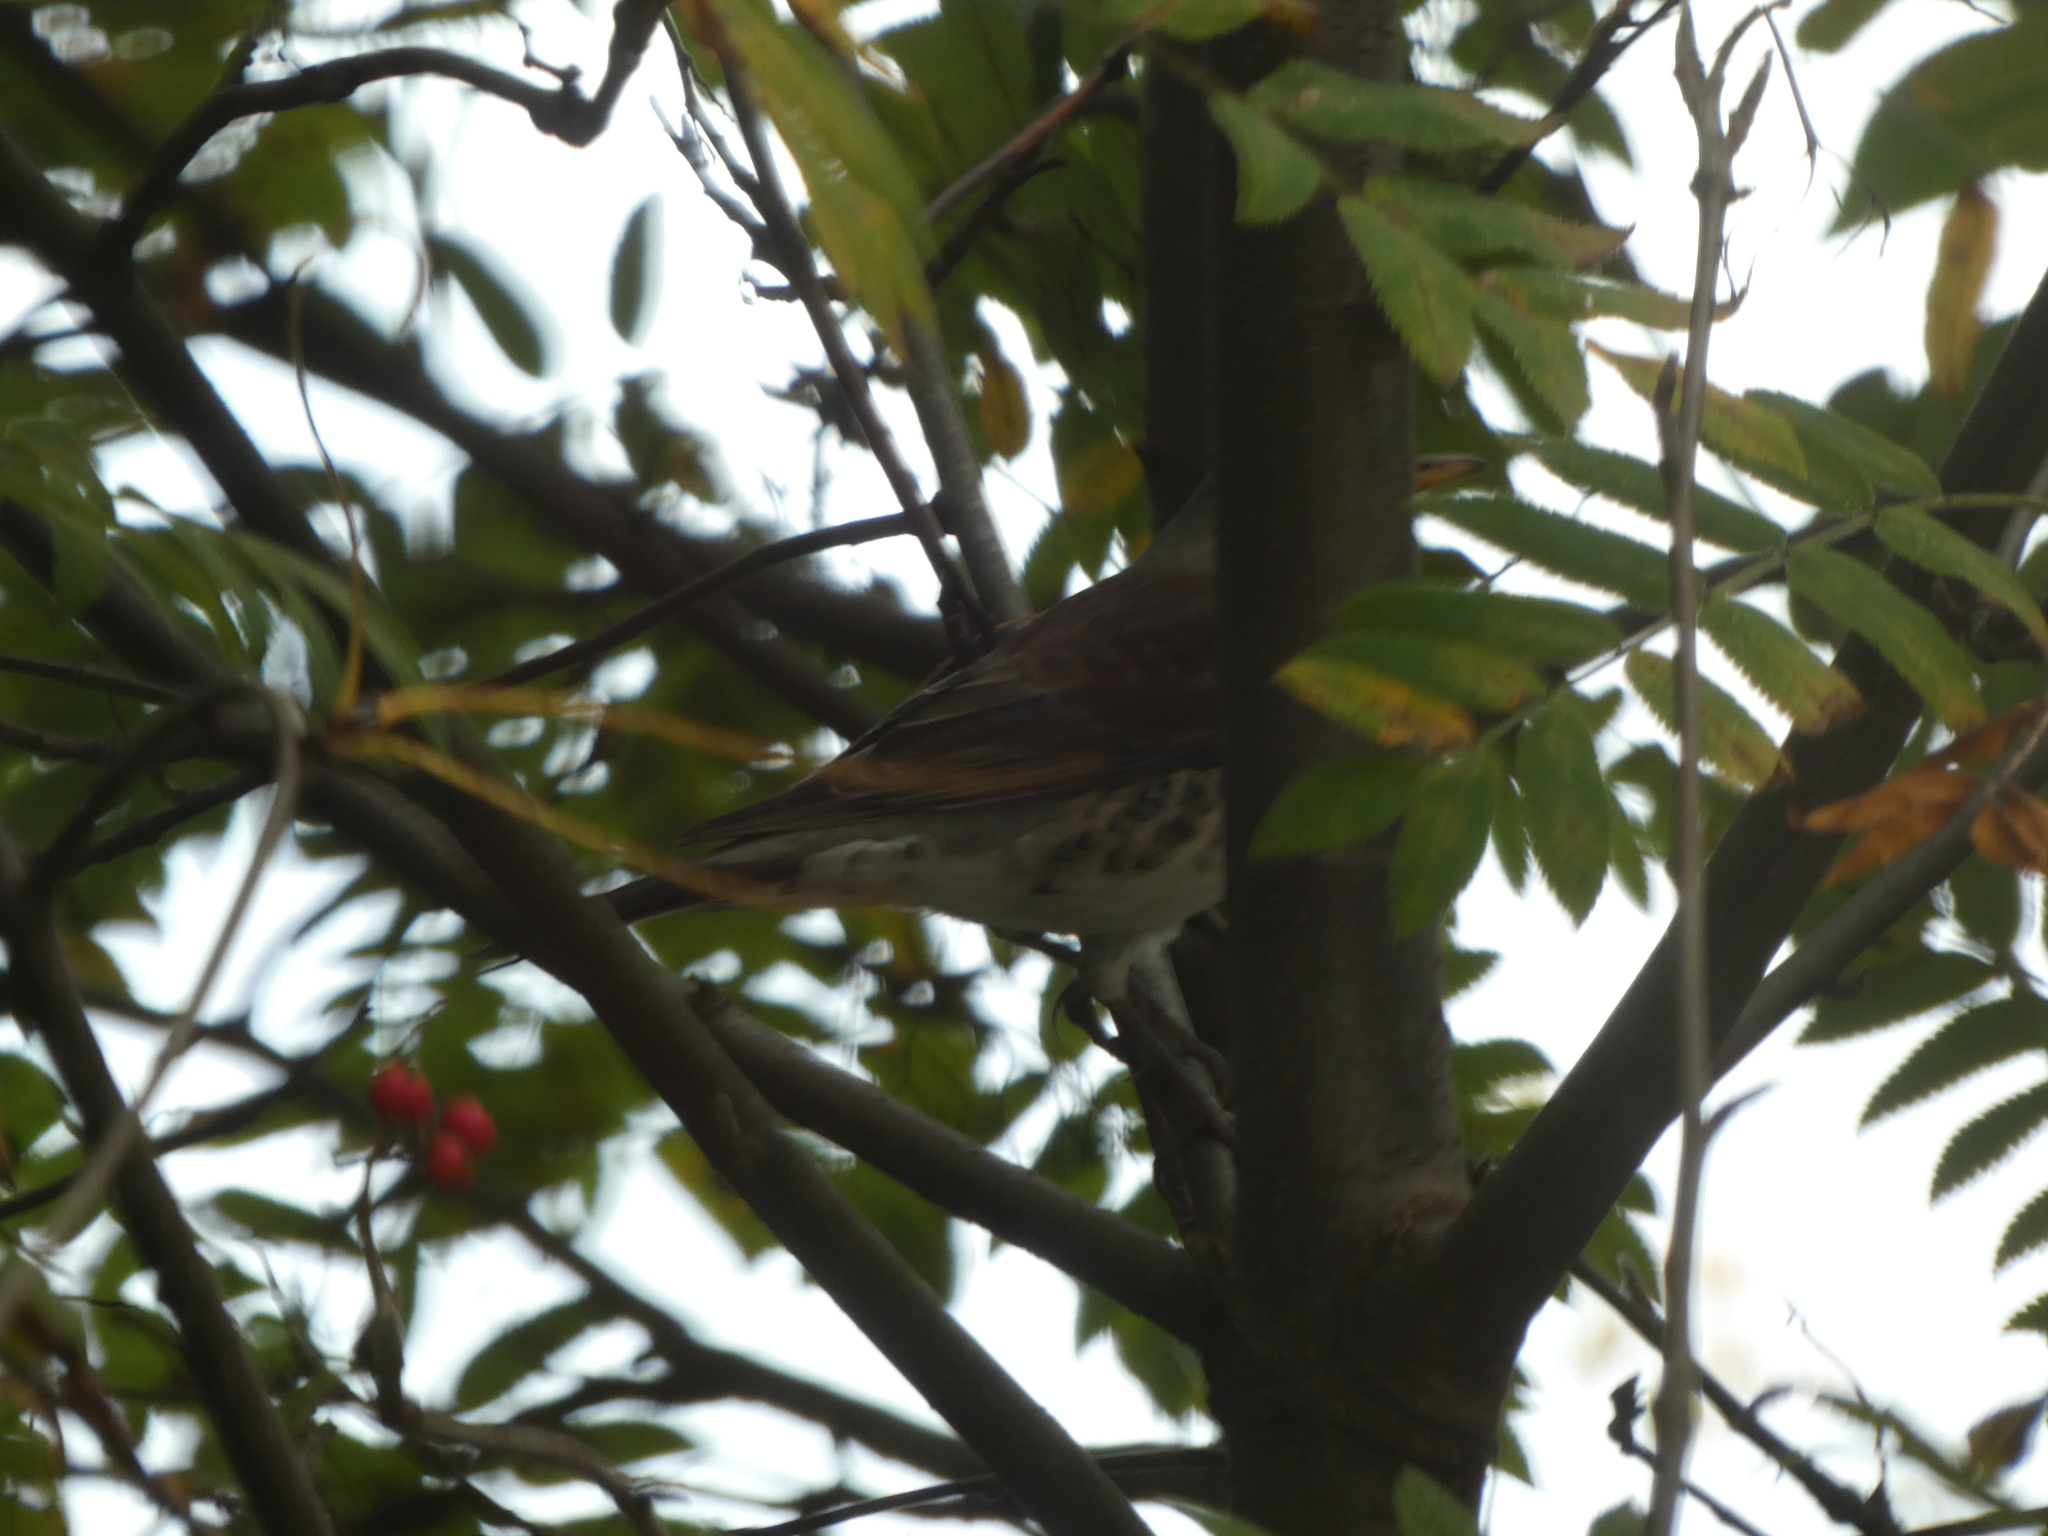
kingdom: Animalia
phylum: Chordata
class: Aves
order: Passeriformes
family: Turdidae
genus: Turdus
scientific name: Turdus pilaris
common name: Fieldfare
